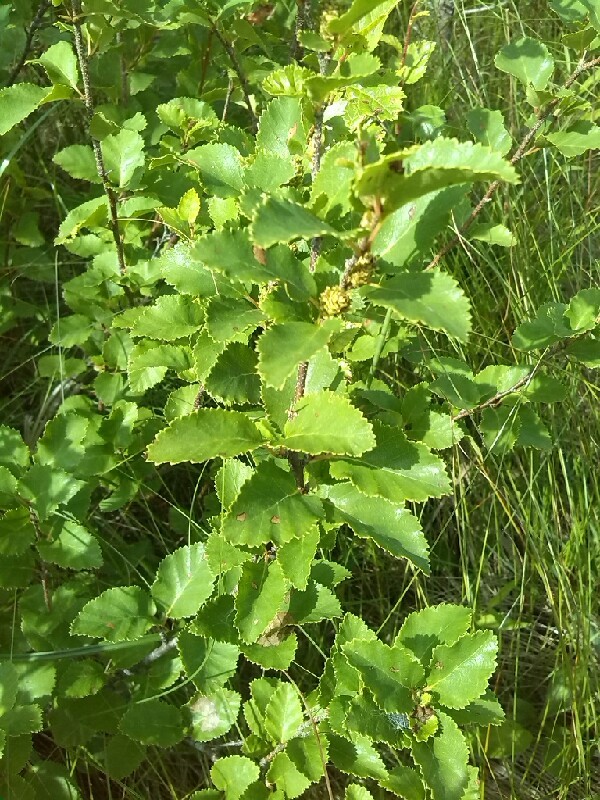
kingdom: Plantae
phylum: Tracheophyta
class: Magnoliopsida
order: Fagales
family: Betulaceae
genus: Betula
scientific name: Betula humilis
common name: Shrubby birch
